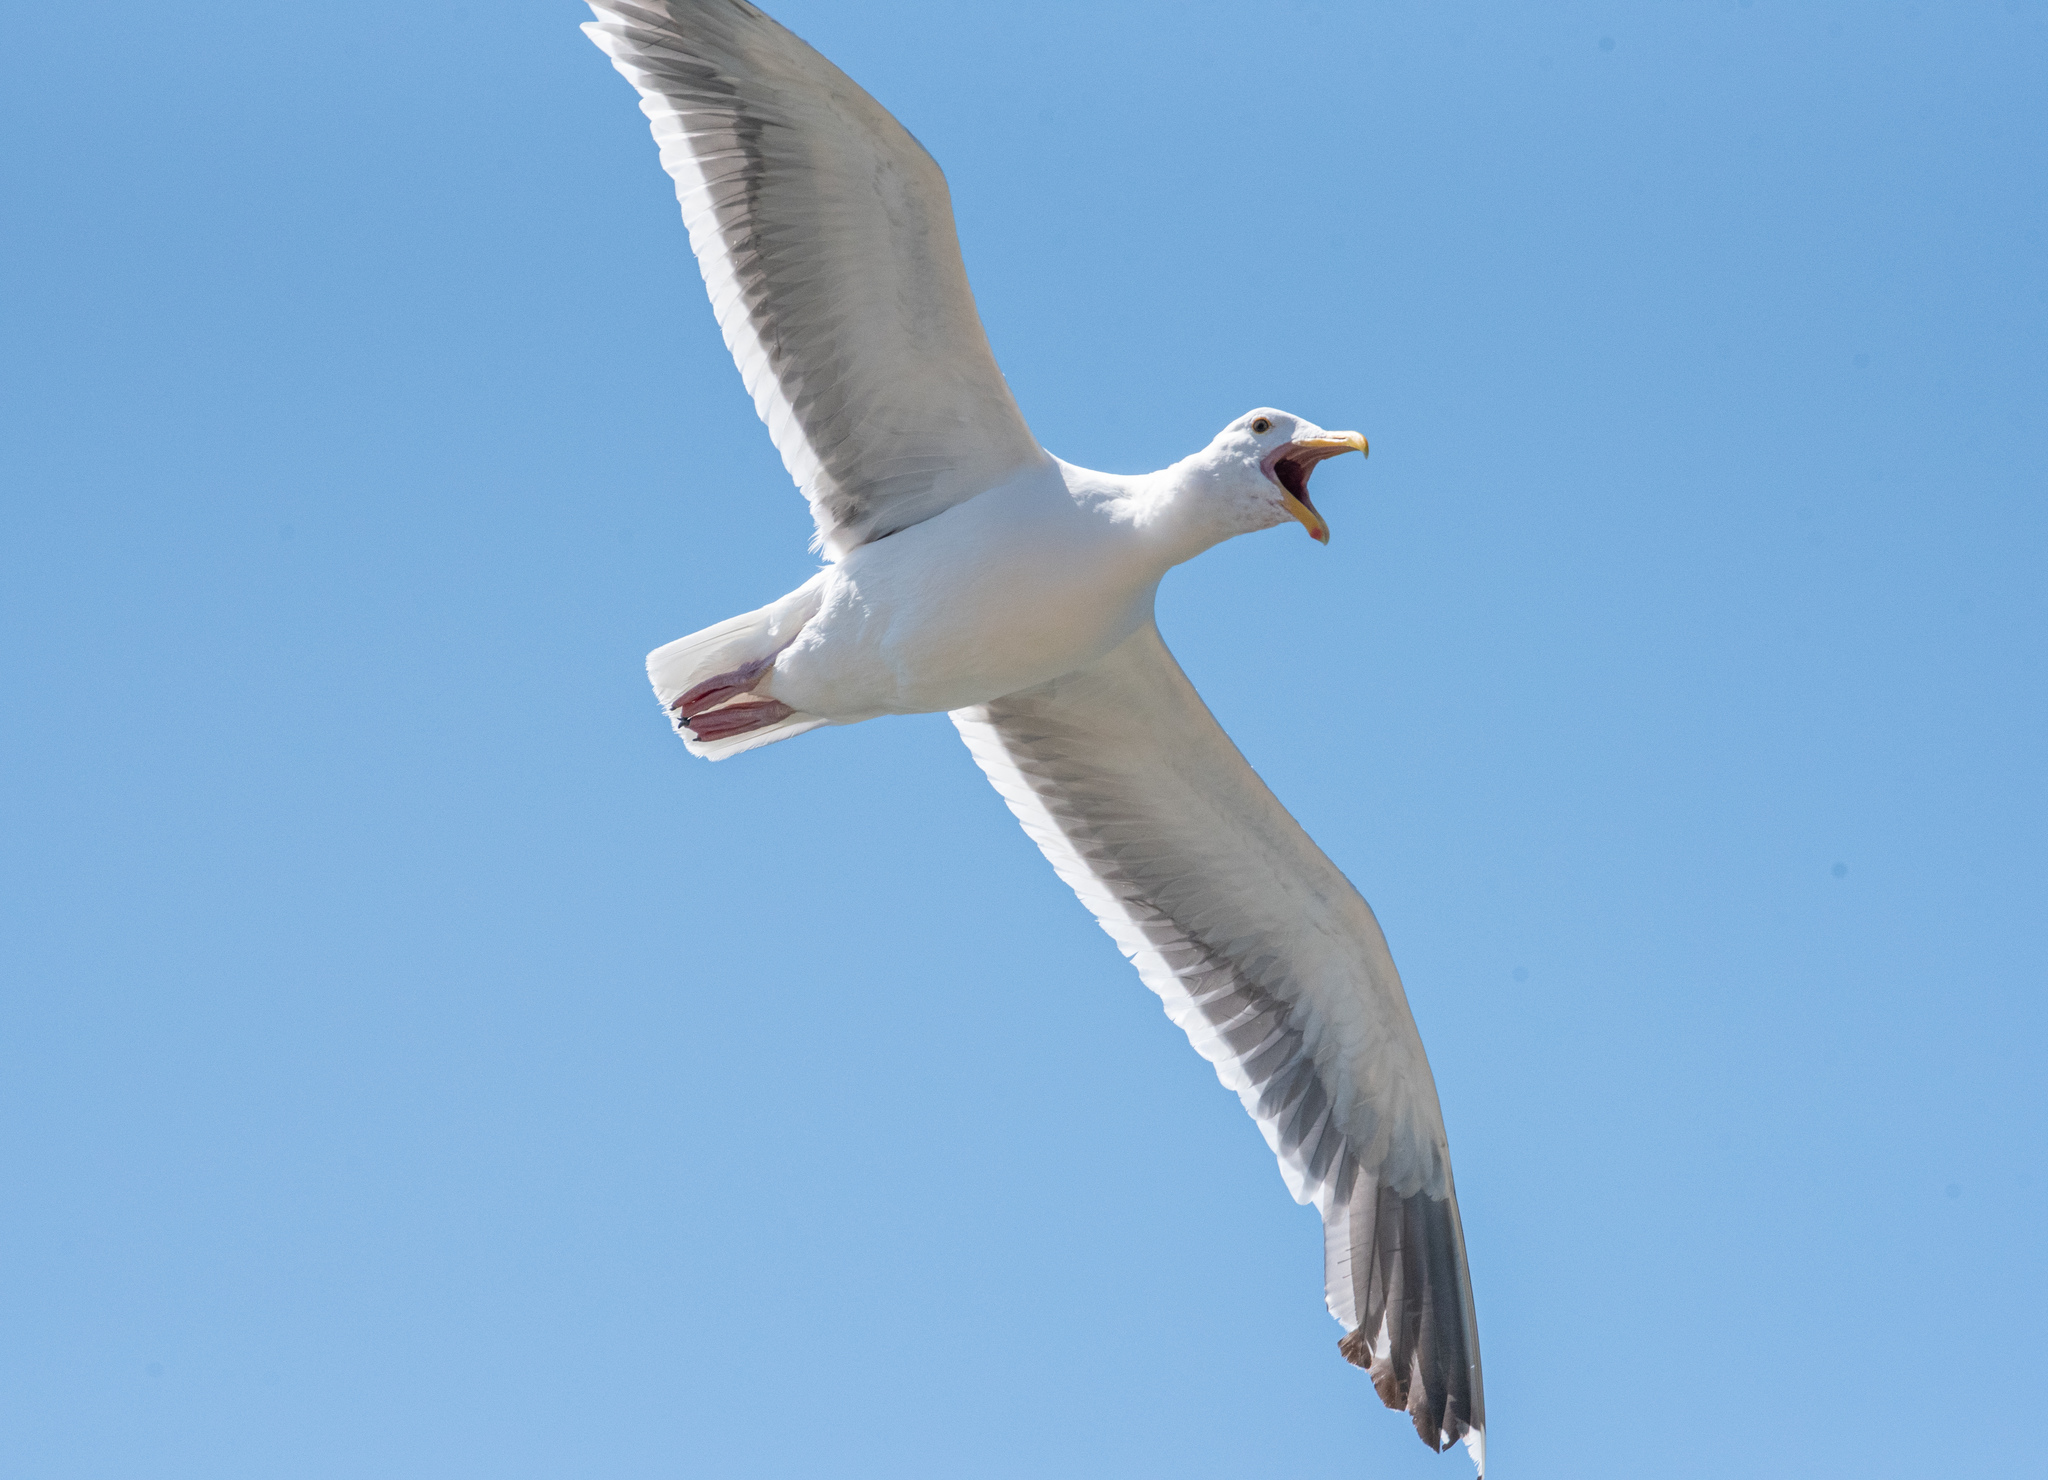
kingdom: Animalia
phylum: Chordata
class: Aves
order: Charadriiformes
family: Laridae
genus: Larus
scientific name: Larus occidentalis
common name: Western gull
